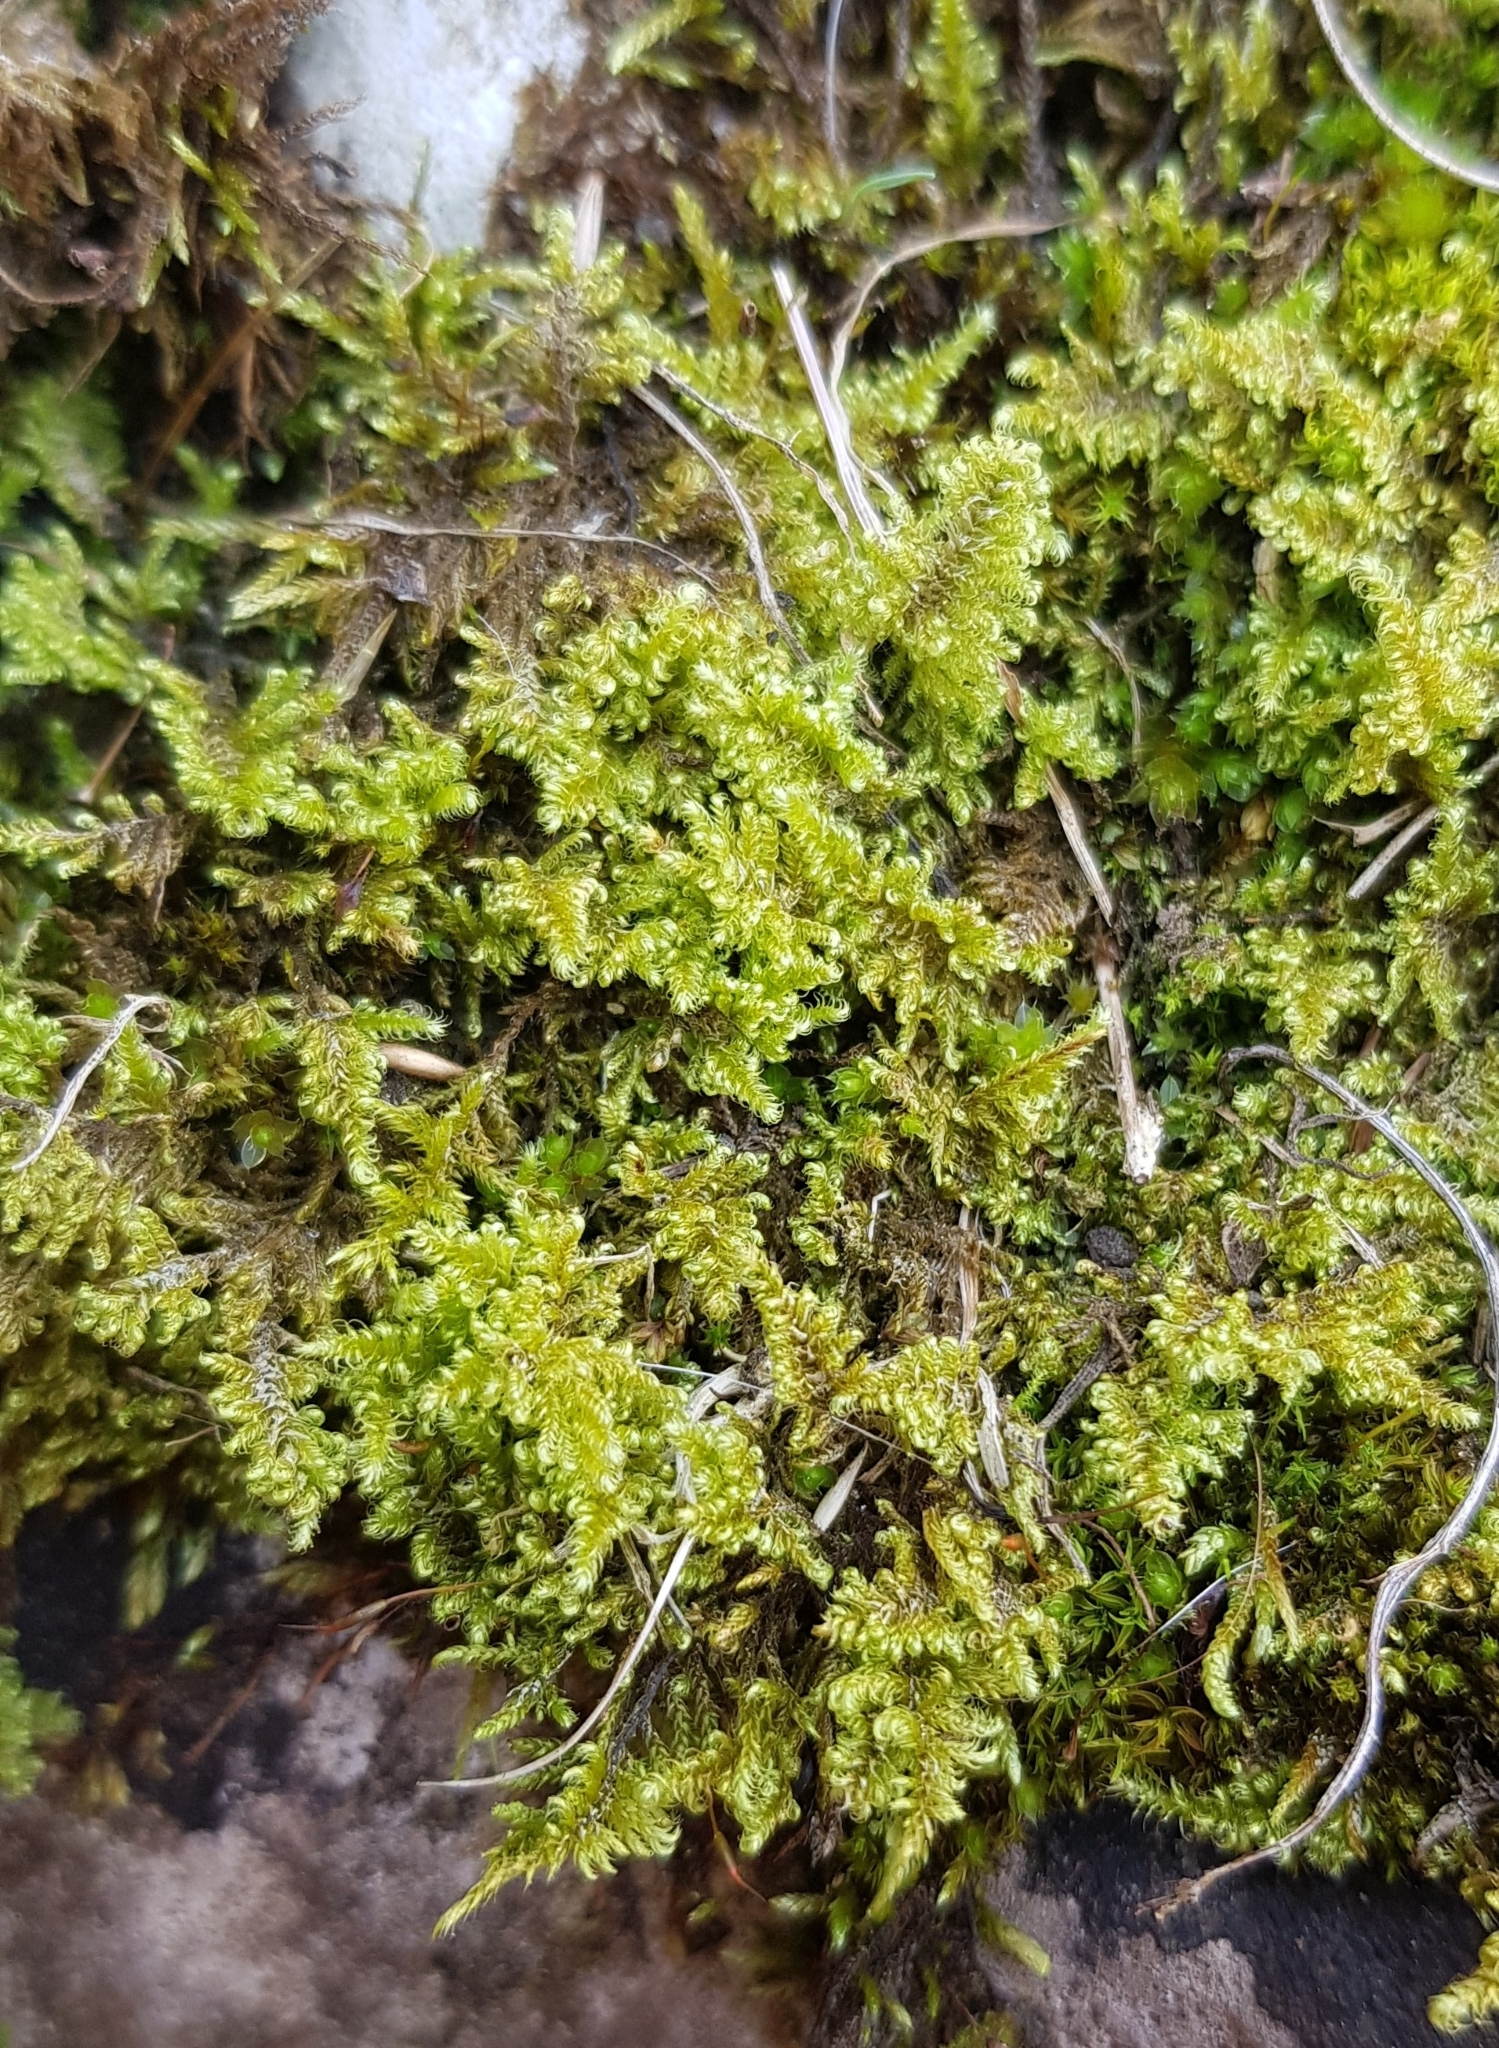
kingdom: Plantae
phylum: Bryophyta
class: Bryopsida
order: Hypnales
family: Myuriaceae
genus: Ctenidium
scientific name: Ctenidium molluscum
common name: Chalk comb-moss
